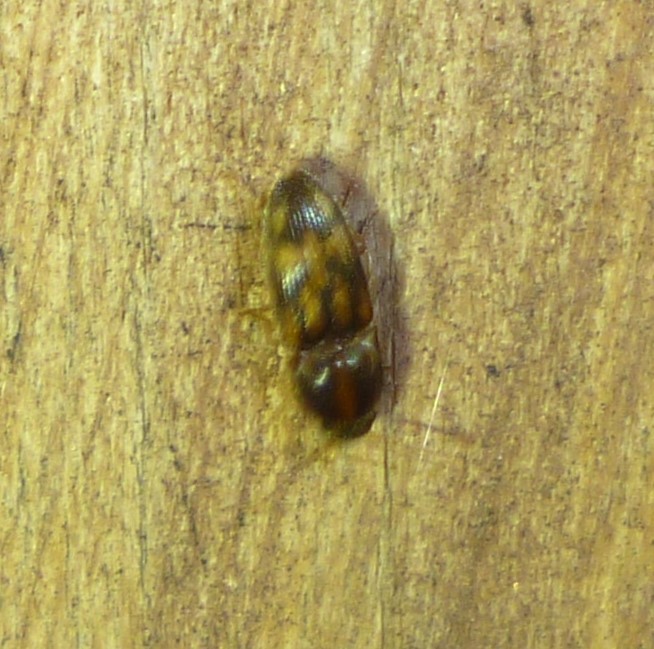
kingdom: Animalia
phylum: Arthropoda
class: Insecta
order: Coleoptera
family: Elateridae
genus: Monocrepidius
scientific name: Monocrepidius bellus
